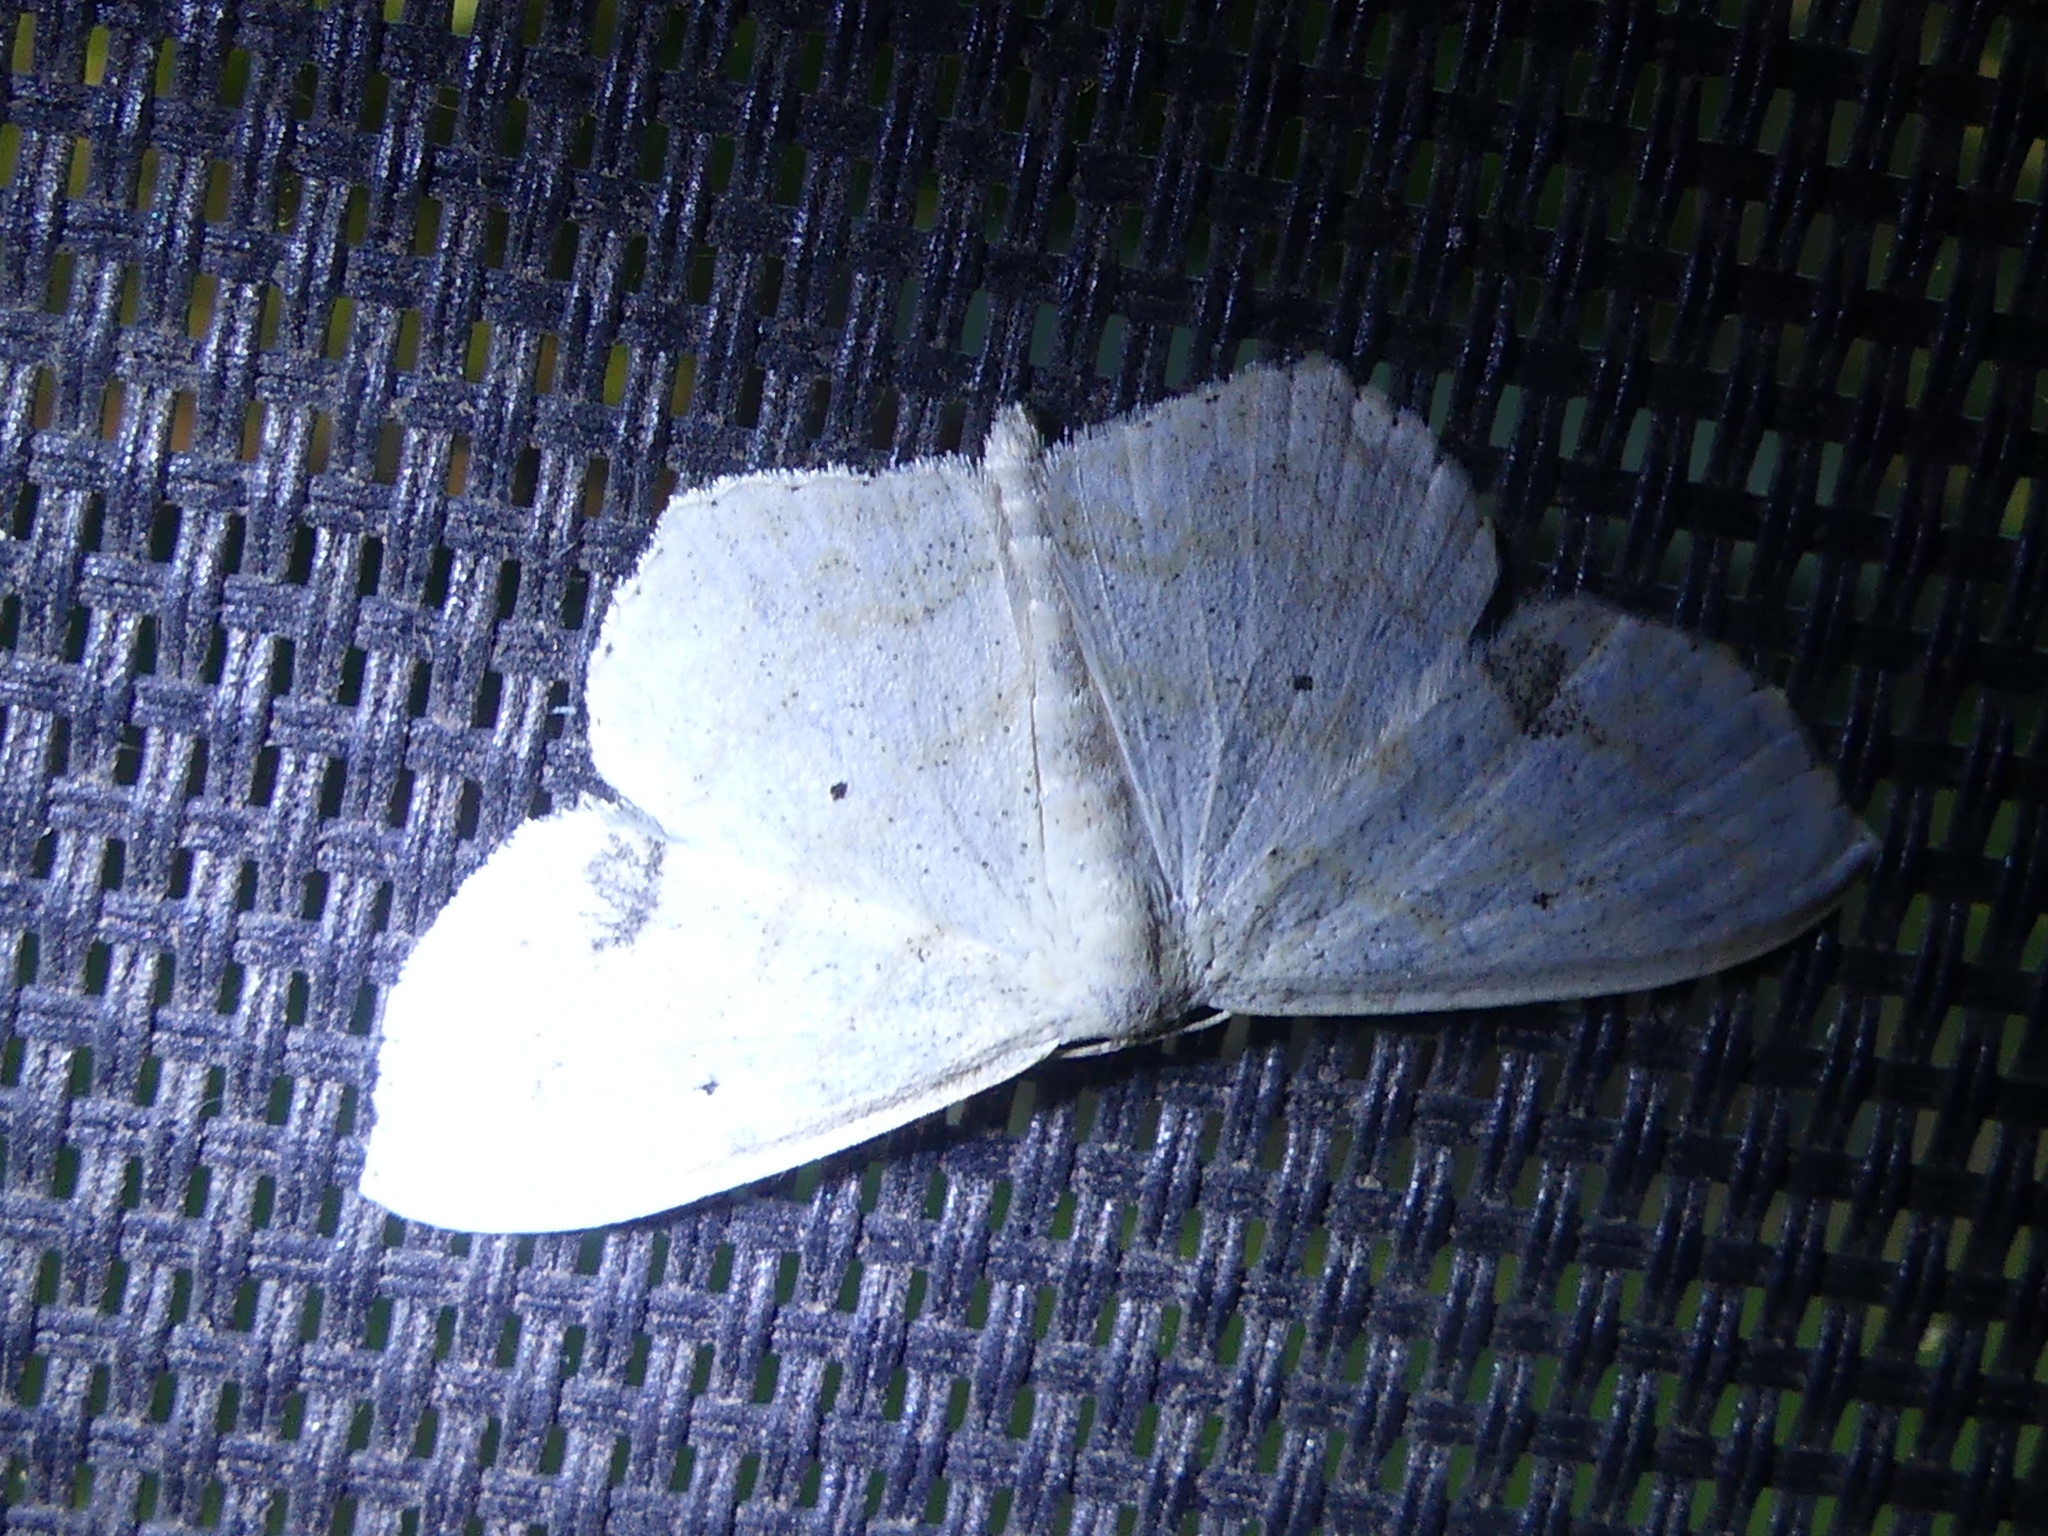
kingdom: Animalia
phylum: Arthropoda
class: Insecta
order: Lepidoptera
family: Geometridae
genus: Scopula
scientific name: Scopula limboundata
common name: Large lace border
